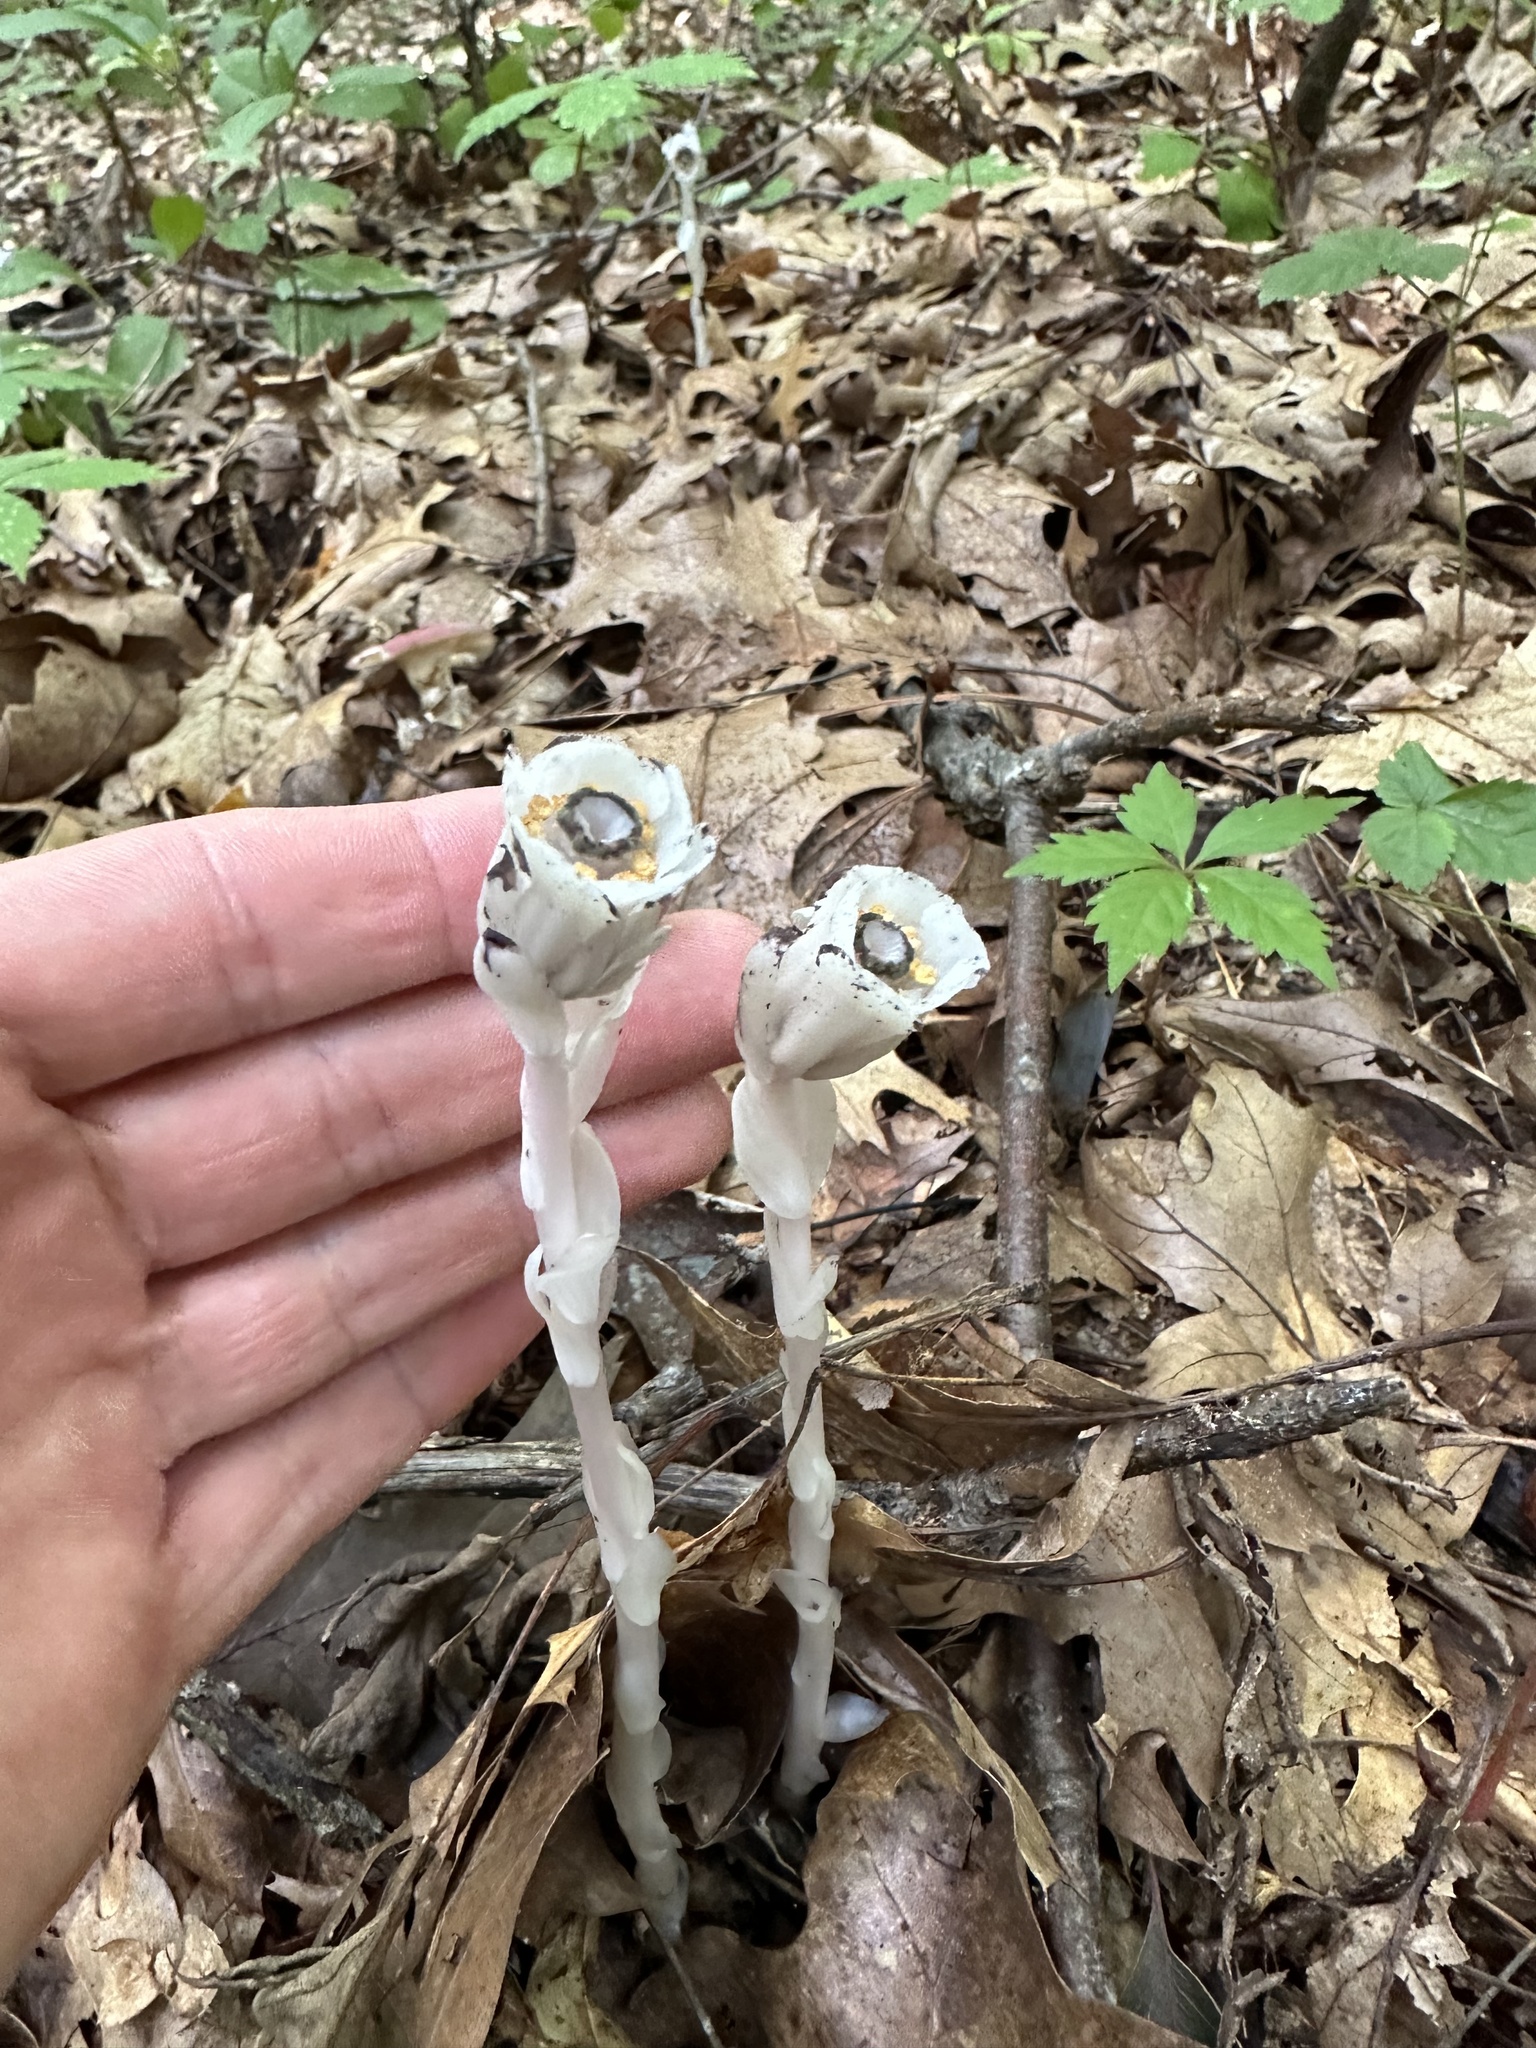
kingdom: Plantae
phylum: Tracheophyta
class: Magnoliopsida
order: Ericales
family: Ericaceae
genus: Monotropa
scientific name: Monotropa uniflora
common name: Convulsion root
